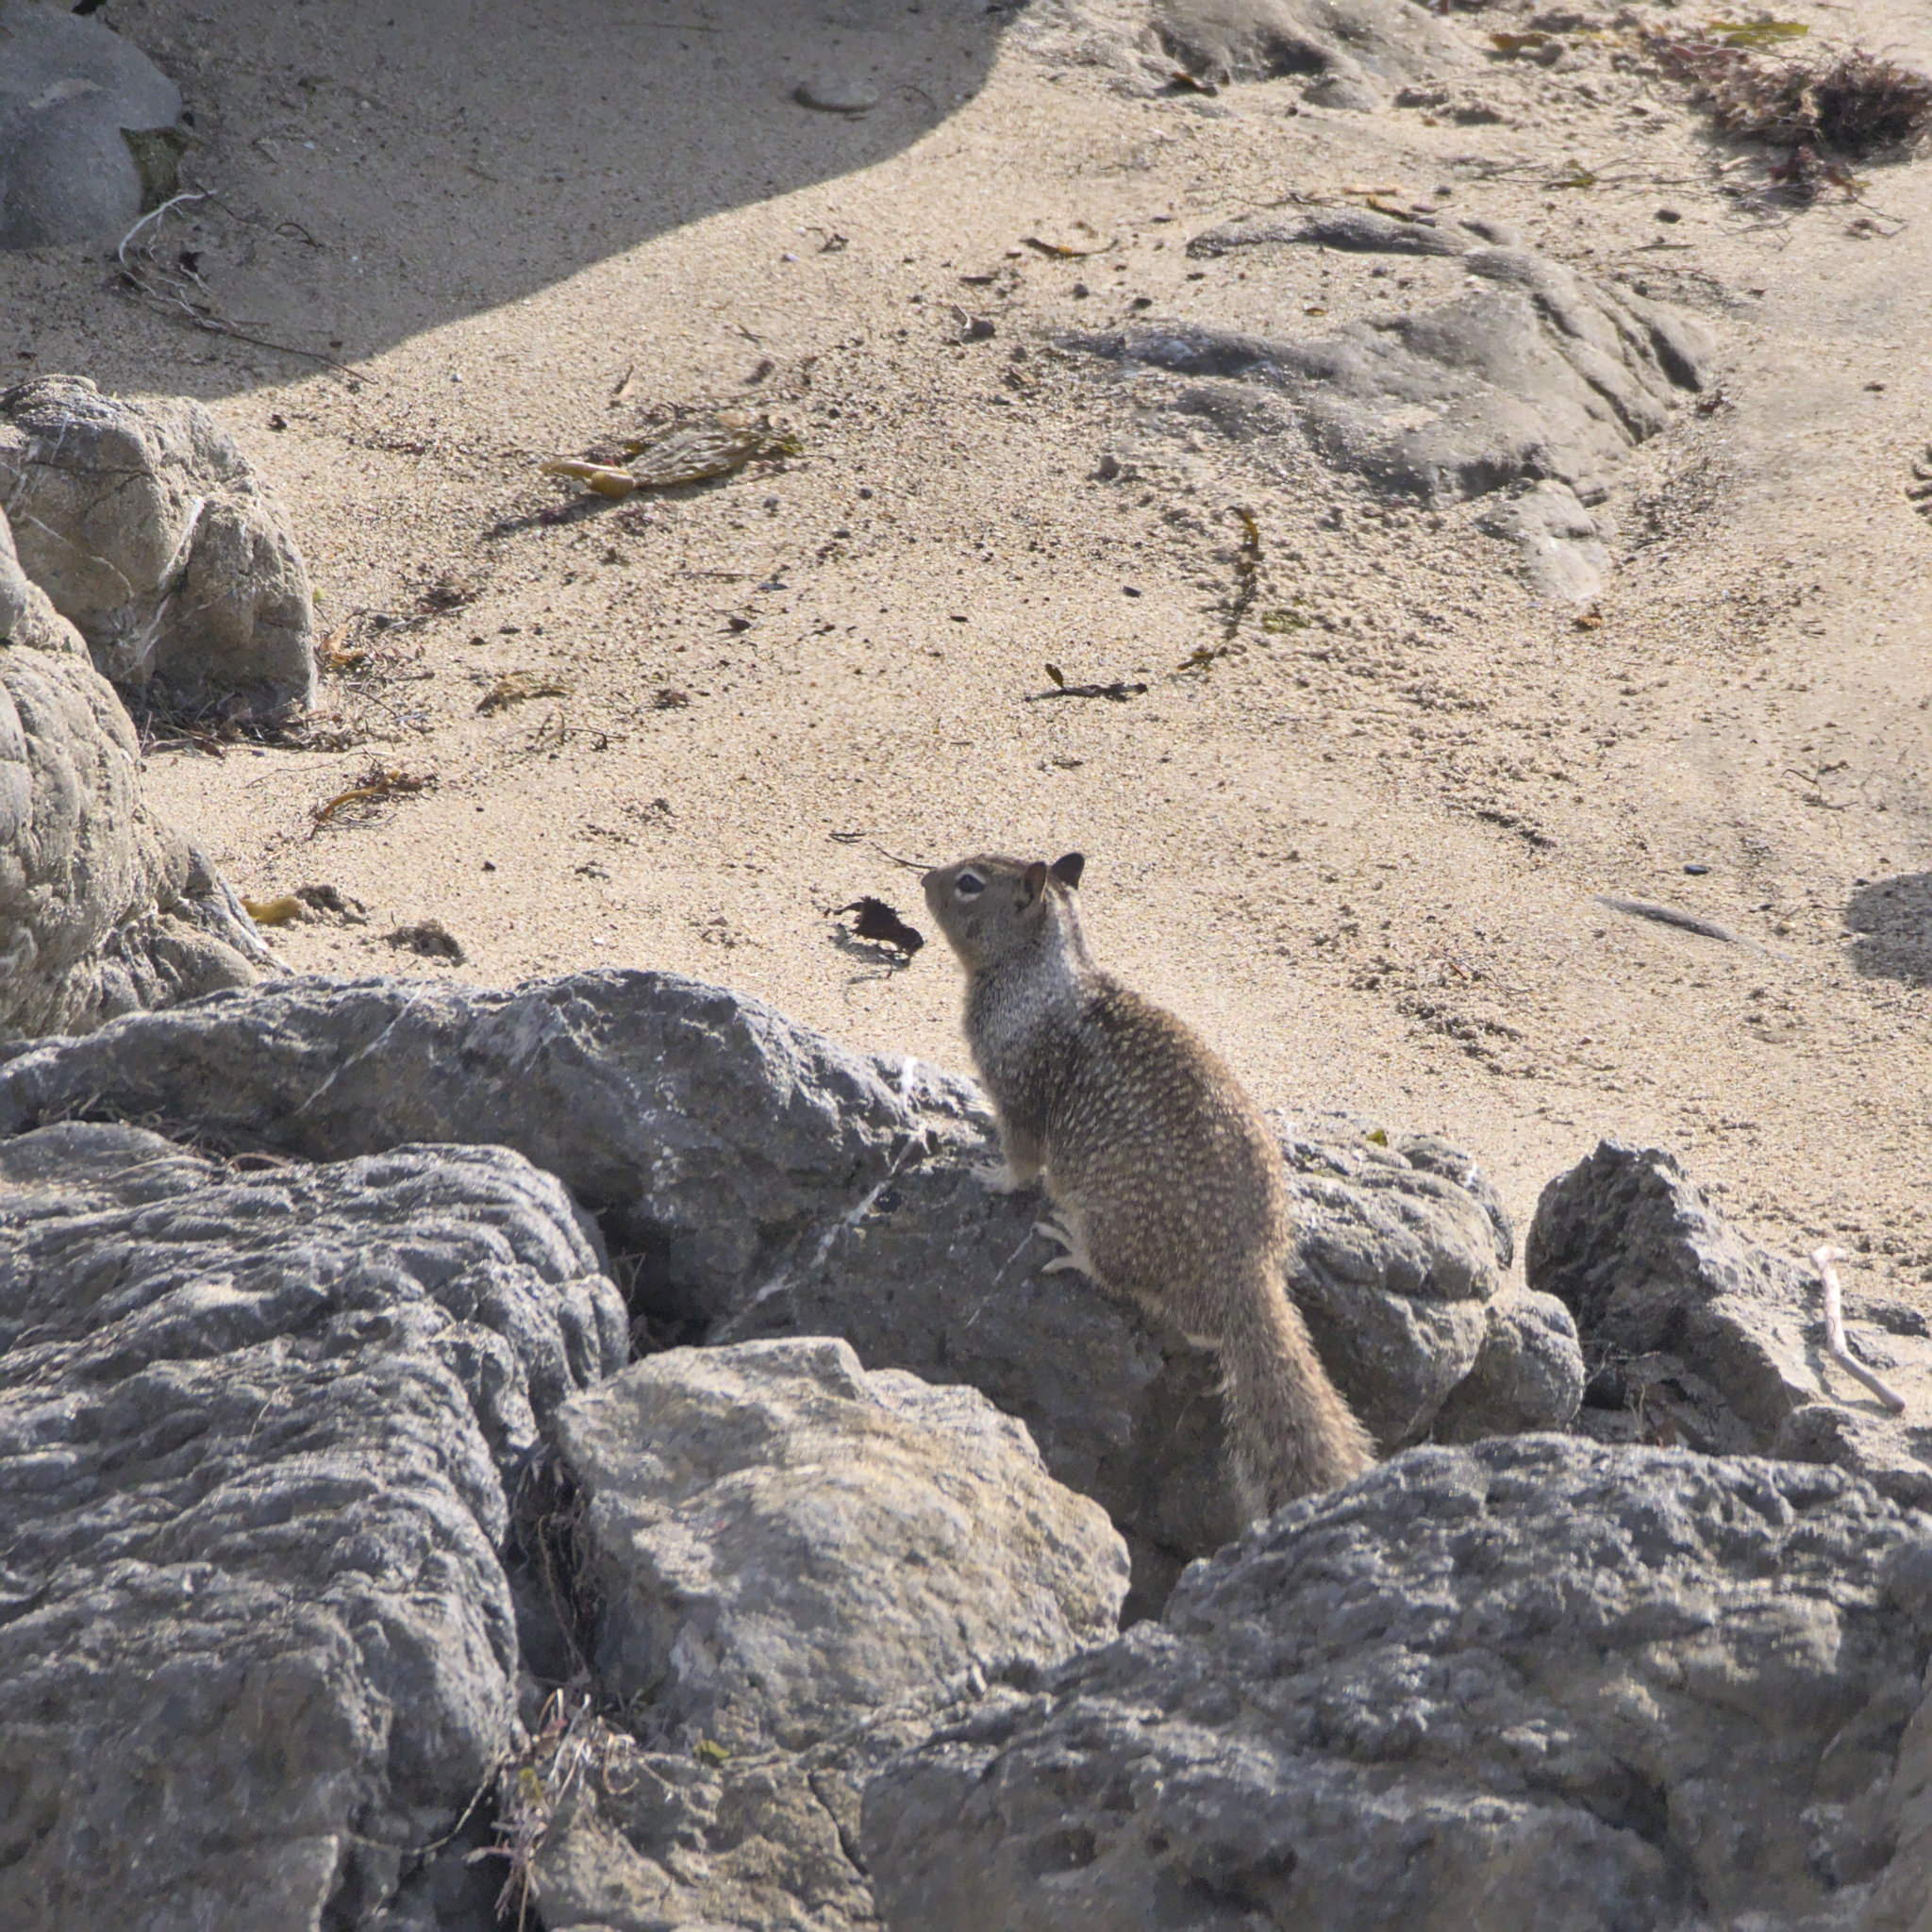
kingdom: Animalia
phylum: Chordata
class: Mammalia
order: Rodentia
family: Sciuridae
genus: Otospermophilus
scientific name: Otospermophilus beecheyi
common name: California ground squirrel
